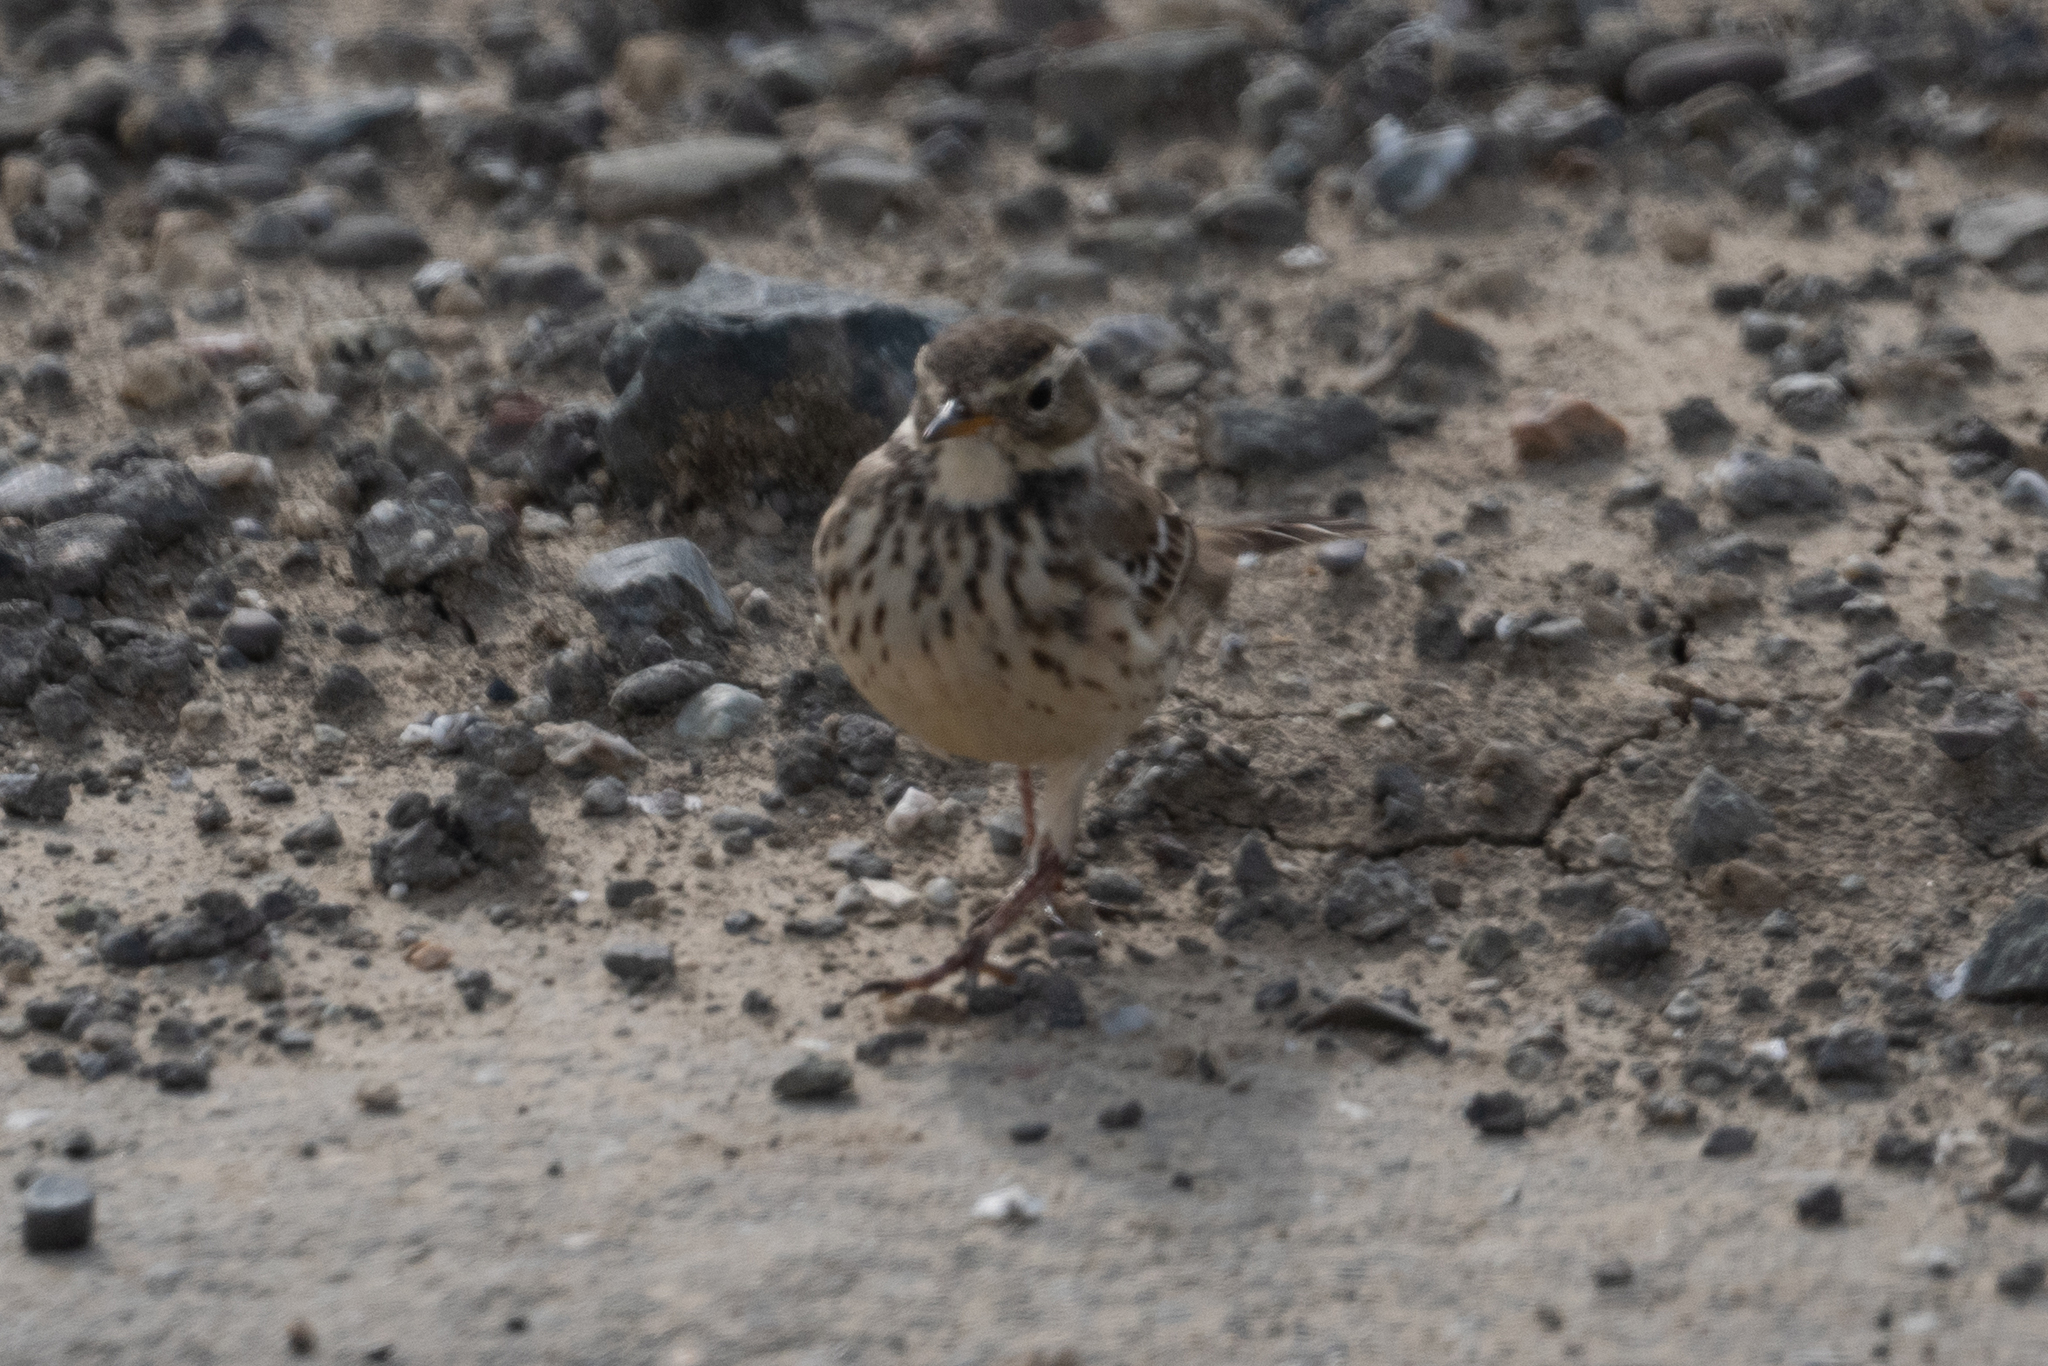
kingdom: Animalia
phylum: Chordata
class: Aves
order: Passeriformes
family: Motacillidae
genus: Anthus
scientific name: Anthus rubescens
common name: Buff-bellied pipit
